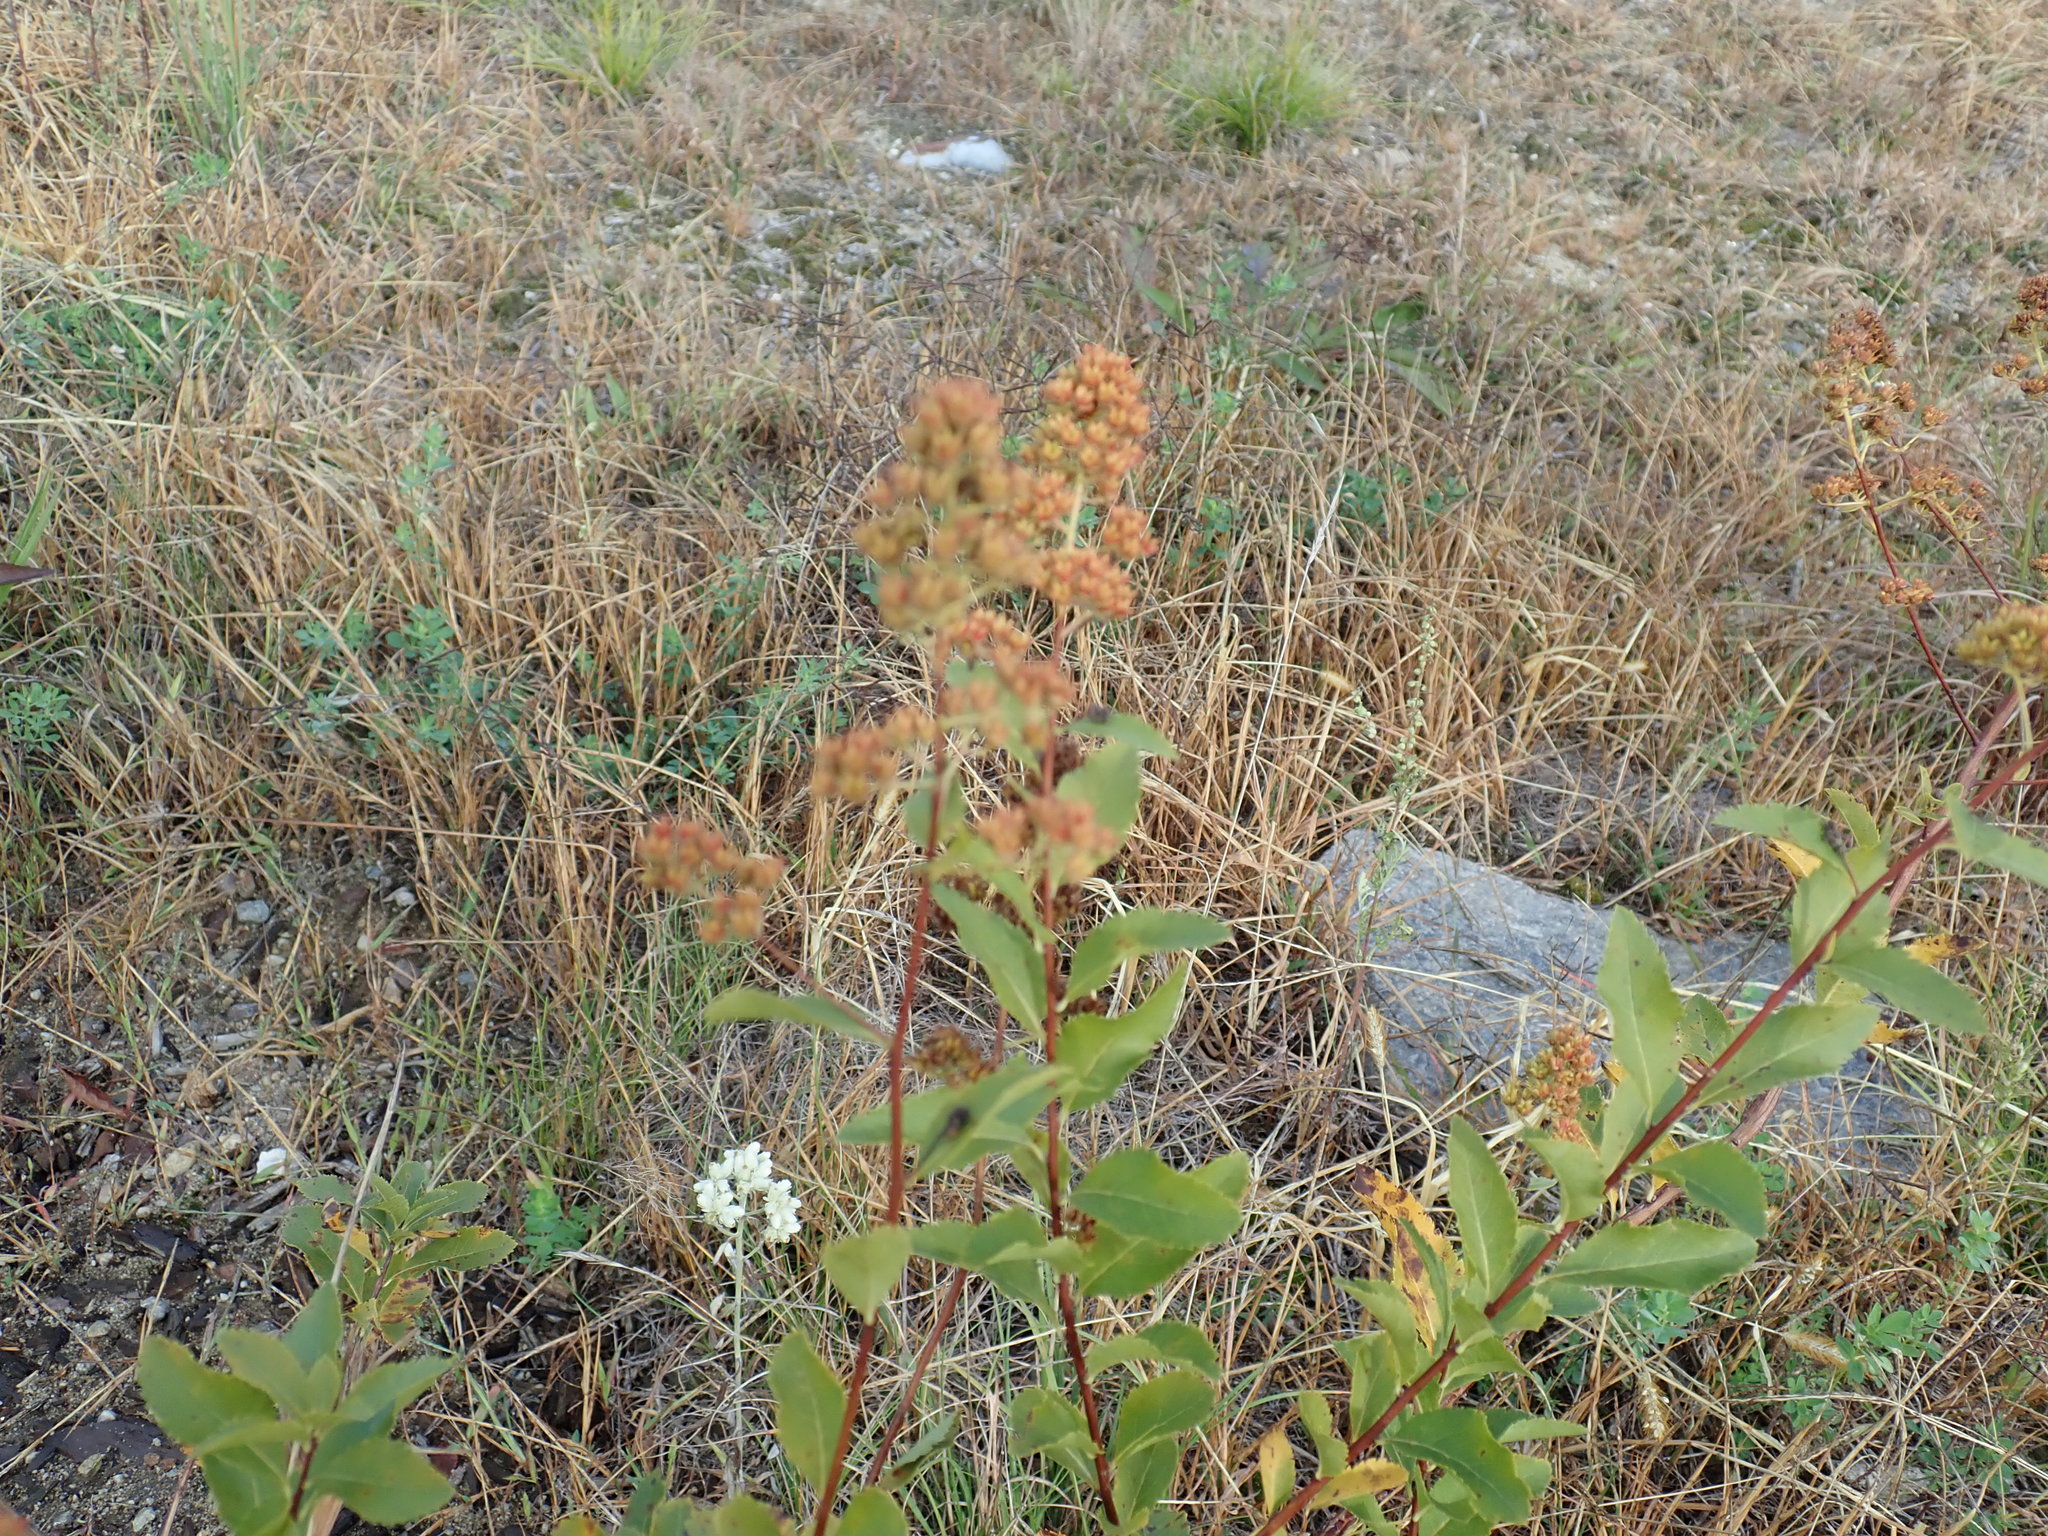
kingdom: Plantae
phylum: Tracheophyta
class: Magnoliopsida
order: Rosales
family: Rosaceae
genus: Spiraea
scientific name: Spiraea alba
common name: Pale bridewort
